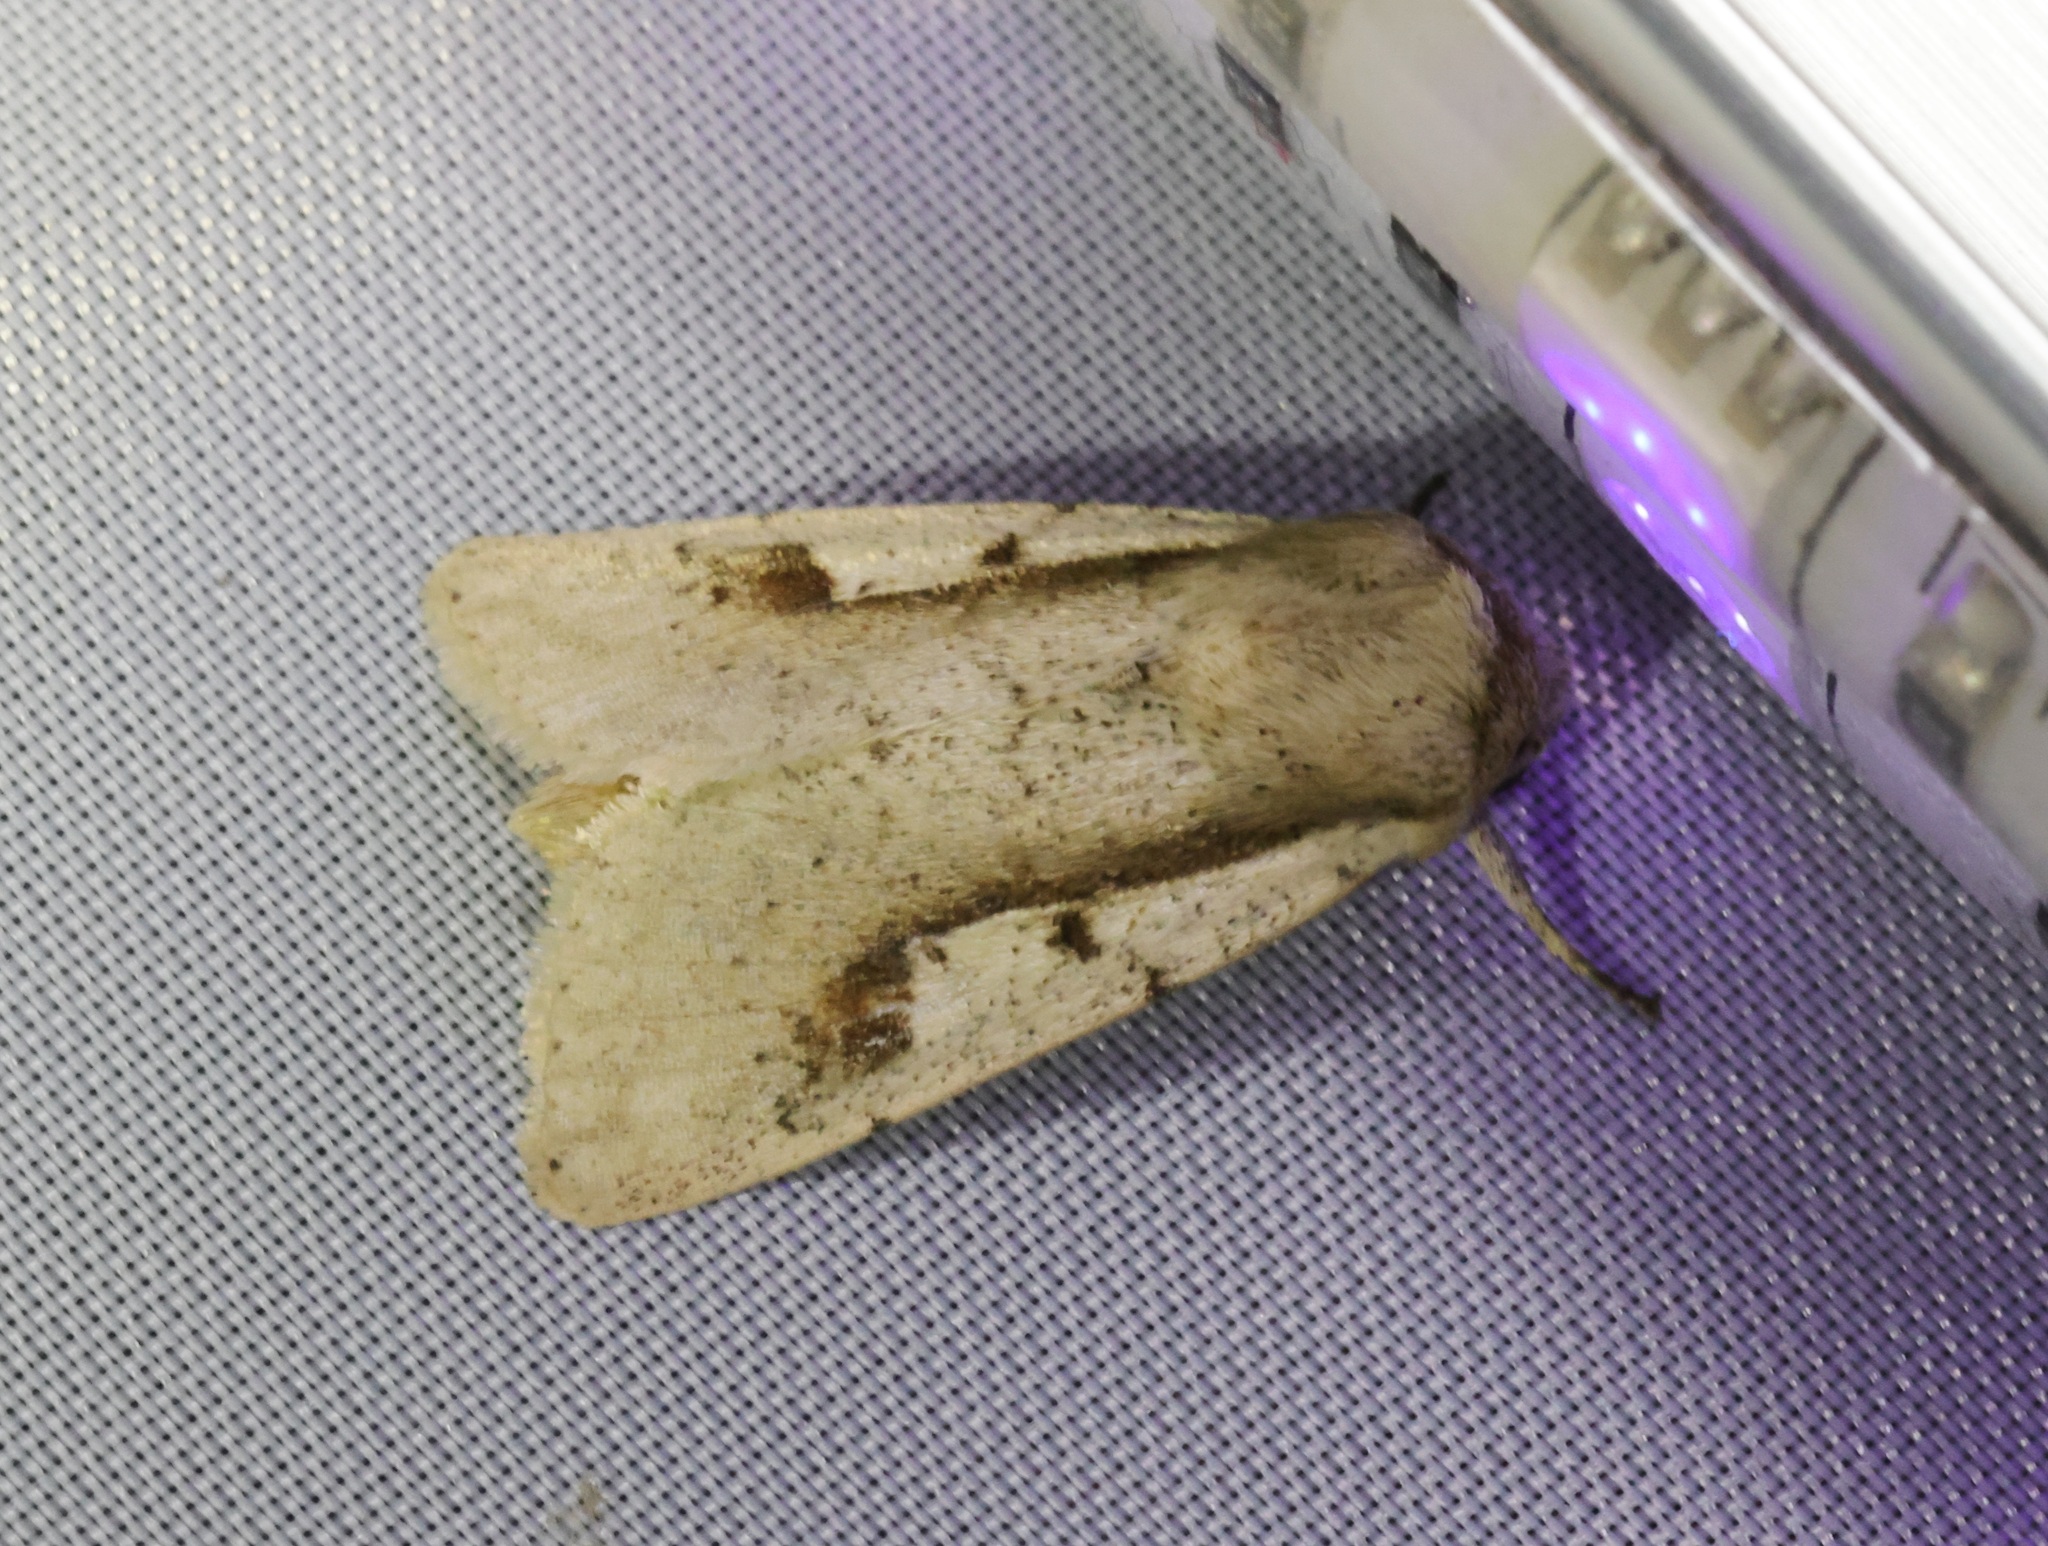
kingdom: Animalia
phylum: Arthropoda
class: Insecta
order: Lepidoptera
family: Noctuidae
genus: Leucania
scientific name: Leucania yu
